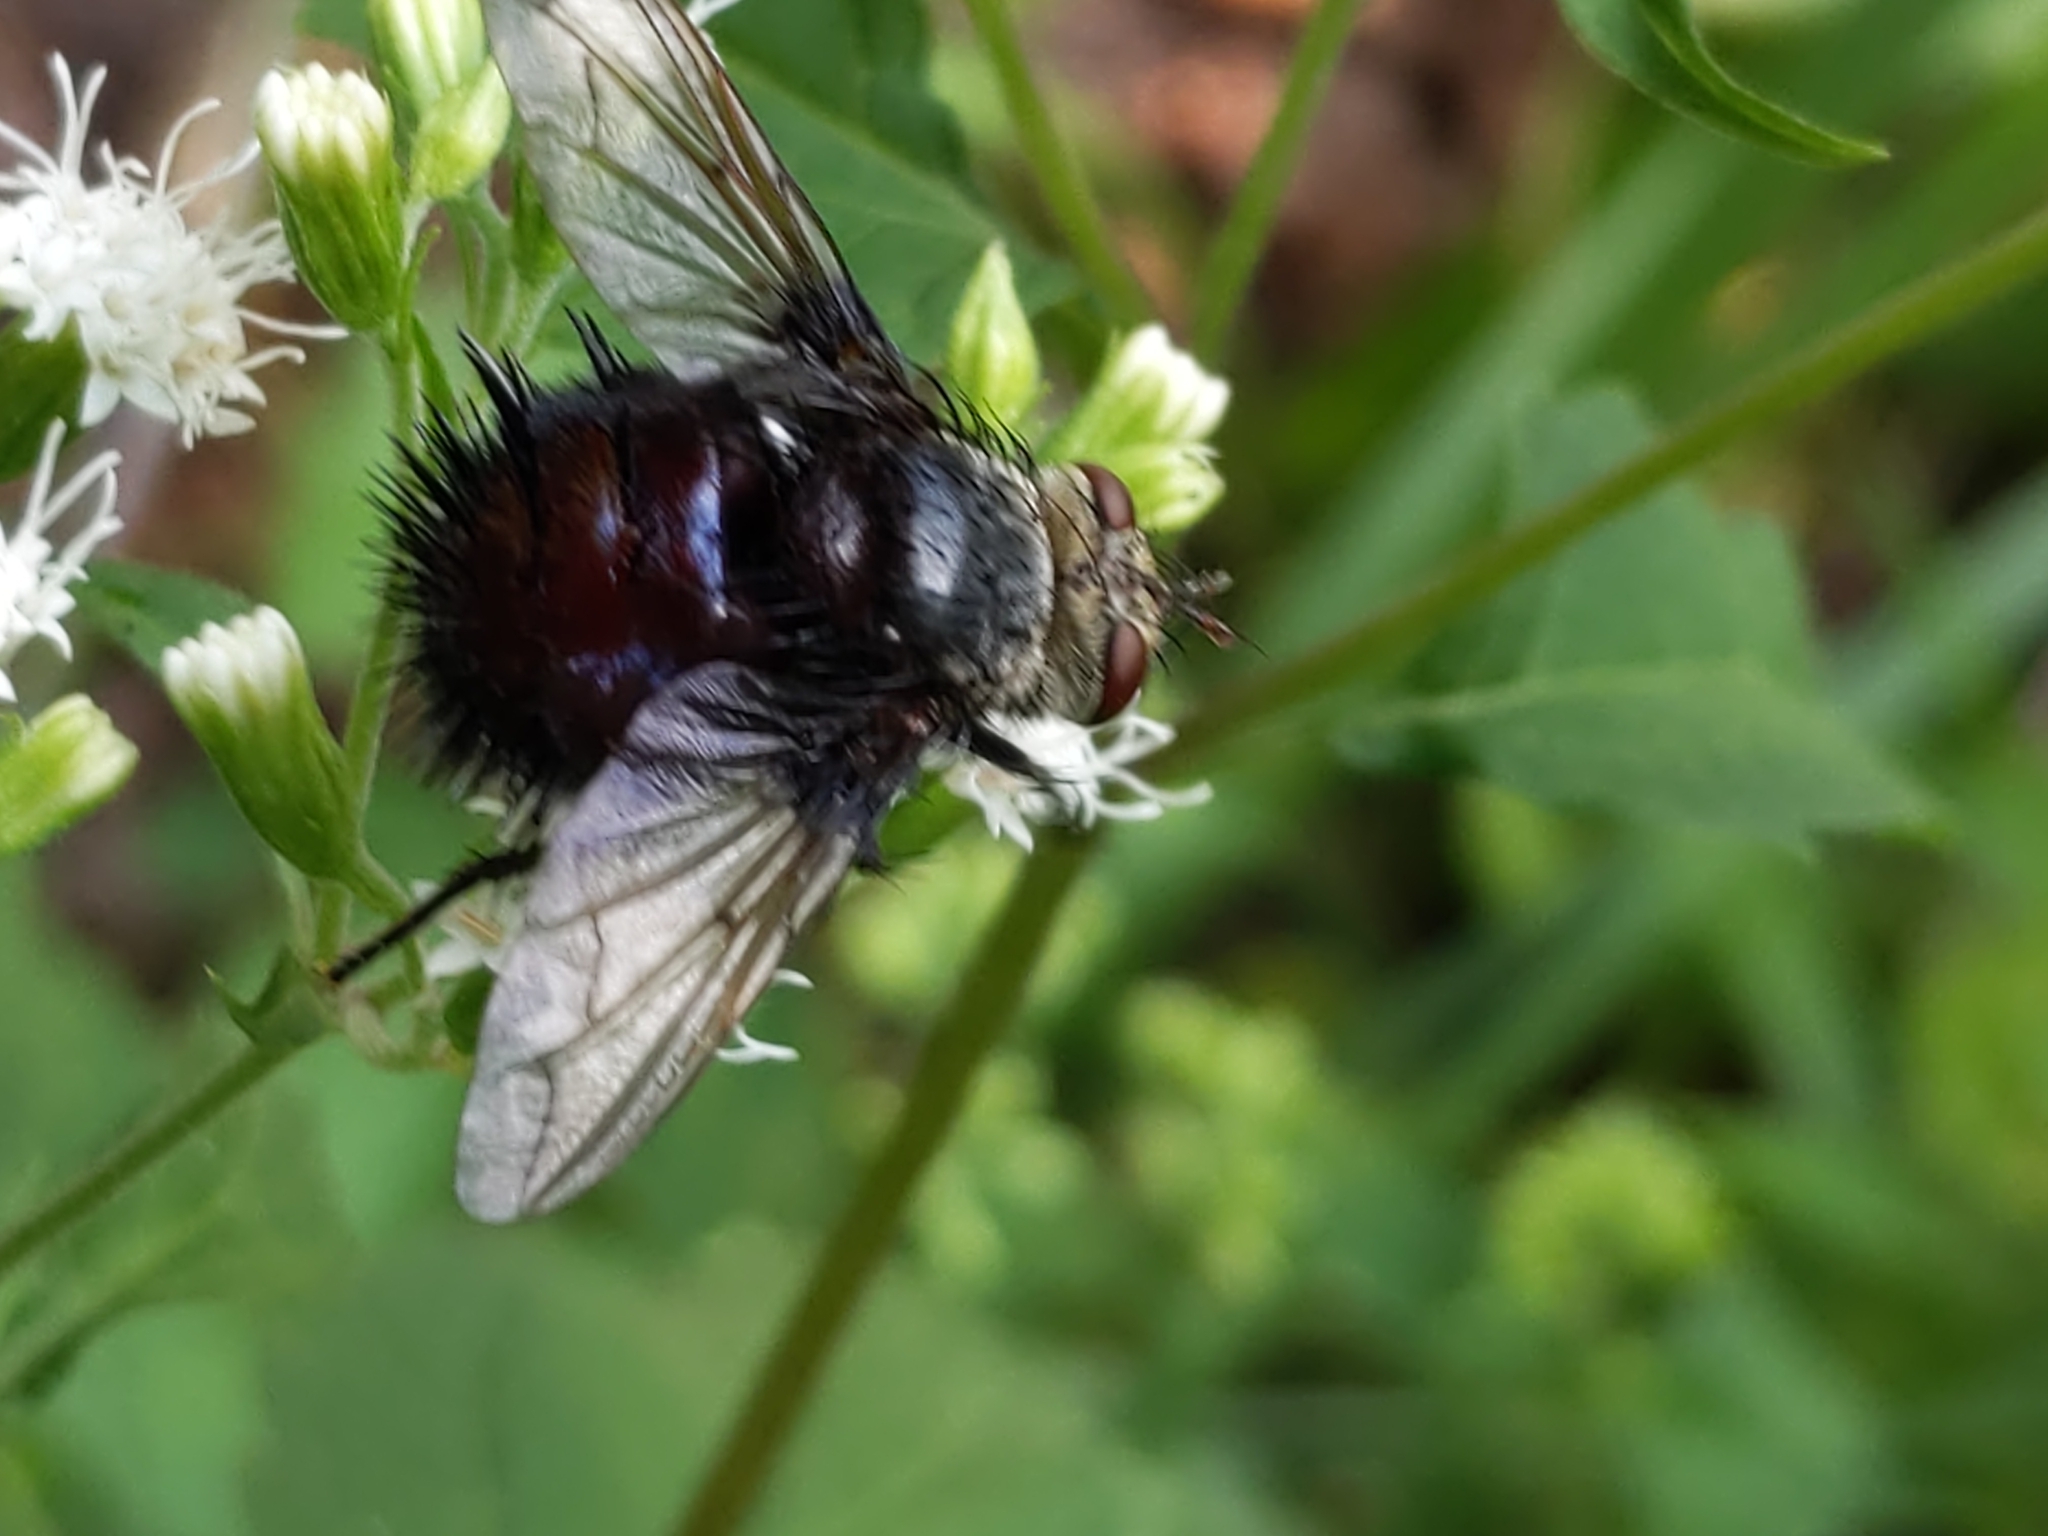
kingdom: Animalia
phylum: Arthropoda
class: Insecta
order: Diptera
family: Tachinidae
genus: Juriniopsis
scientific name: Juriniopsis adusta
